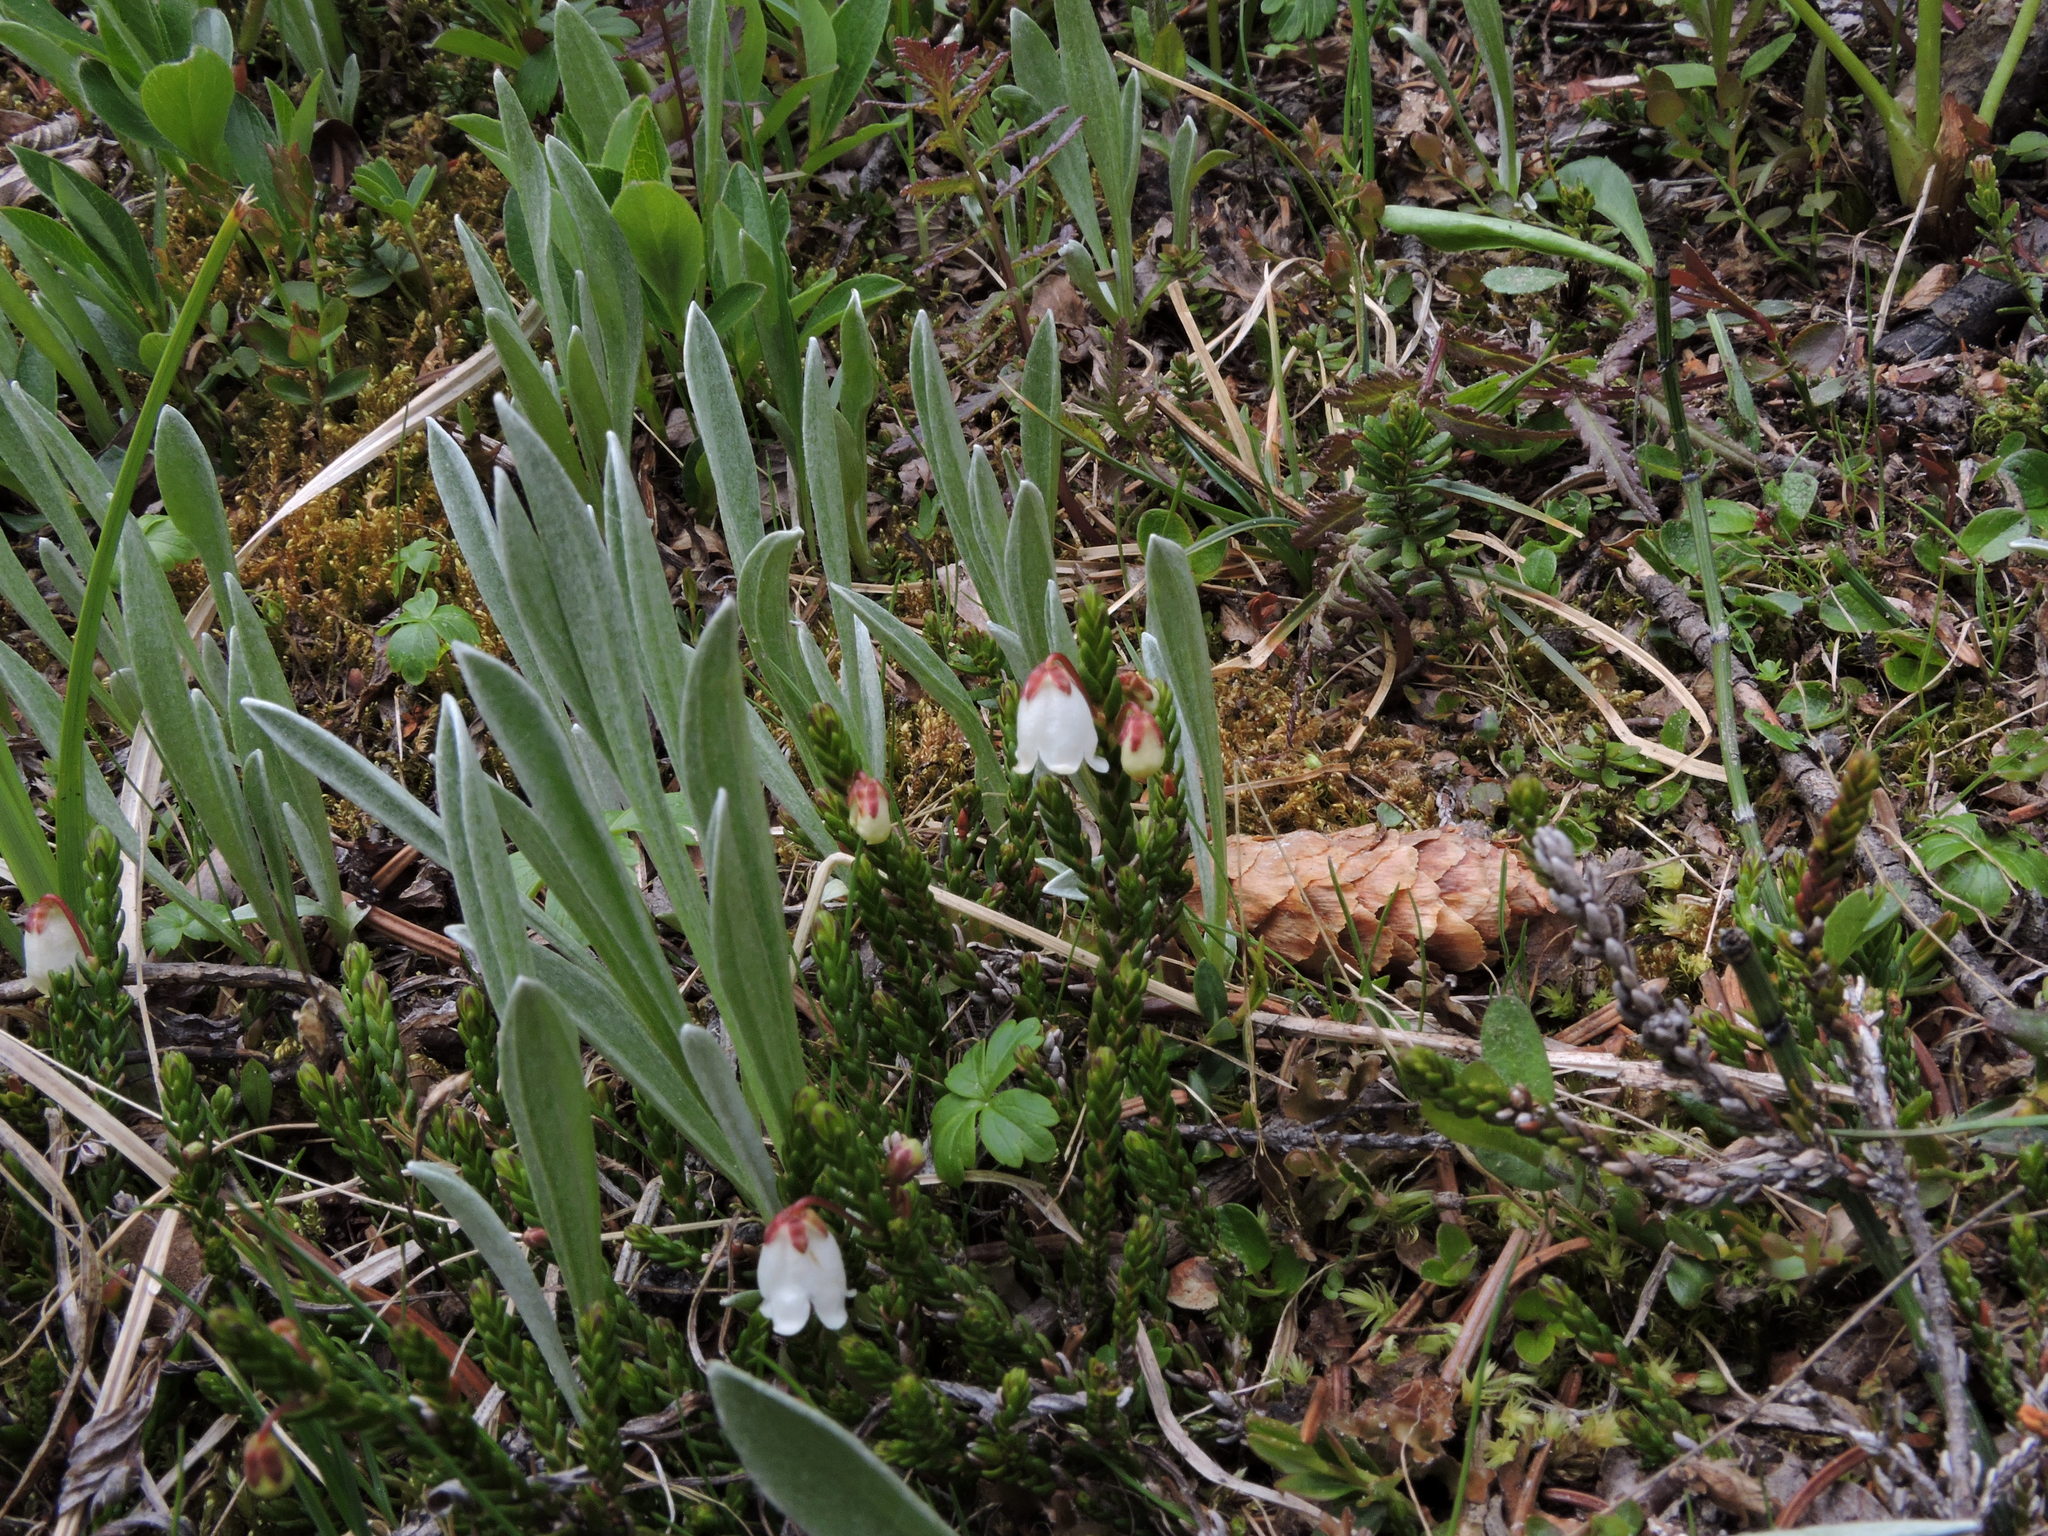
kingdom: Plantae
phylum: Tracheophyta
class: Magnoliopsida
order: Ericales
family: Ericaceae
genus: Cassiope
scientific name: Cassiope mertensiana
